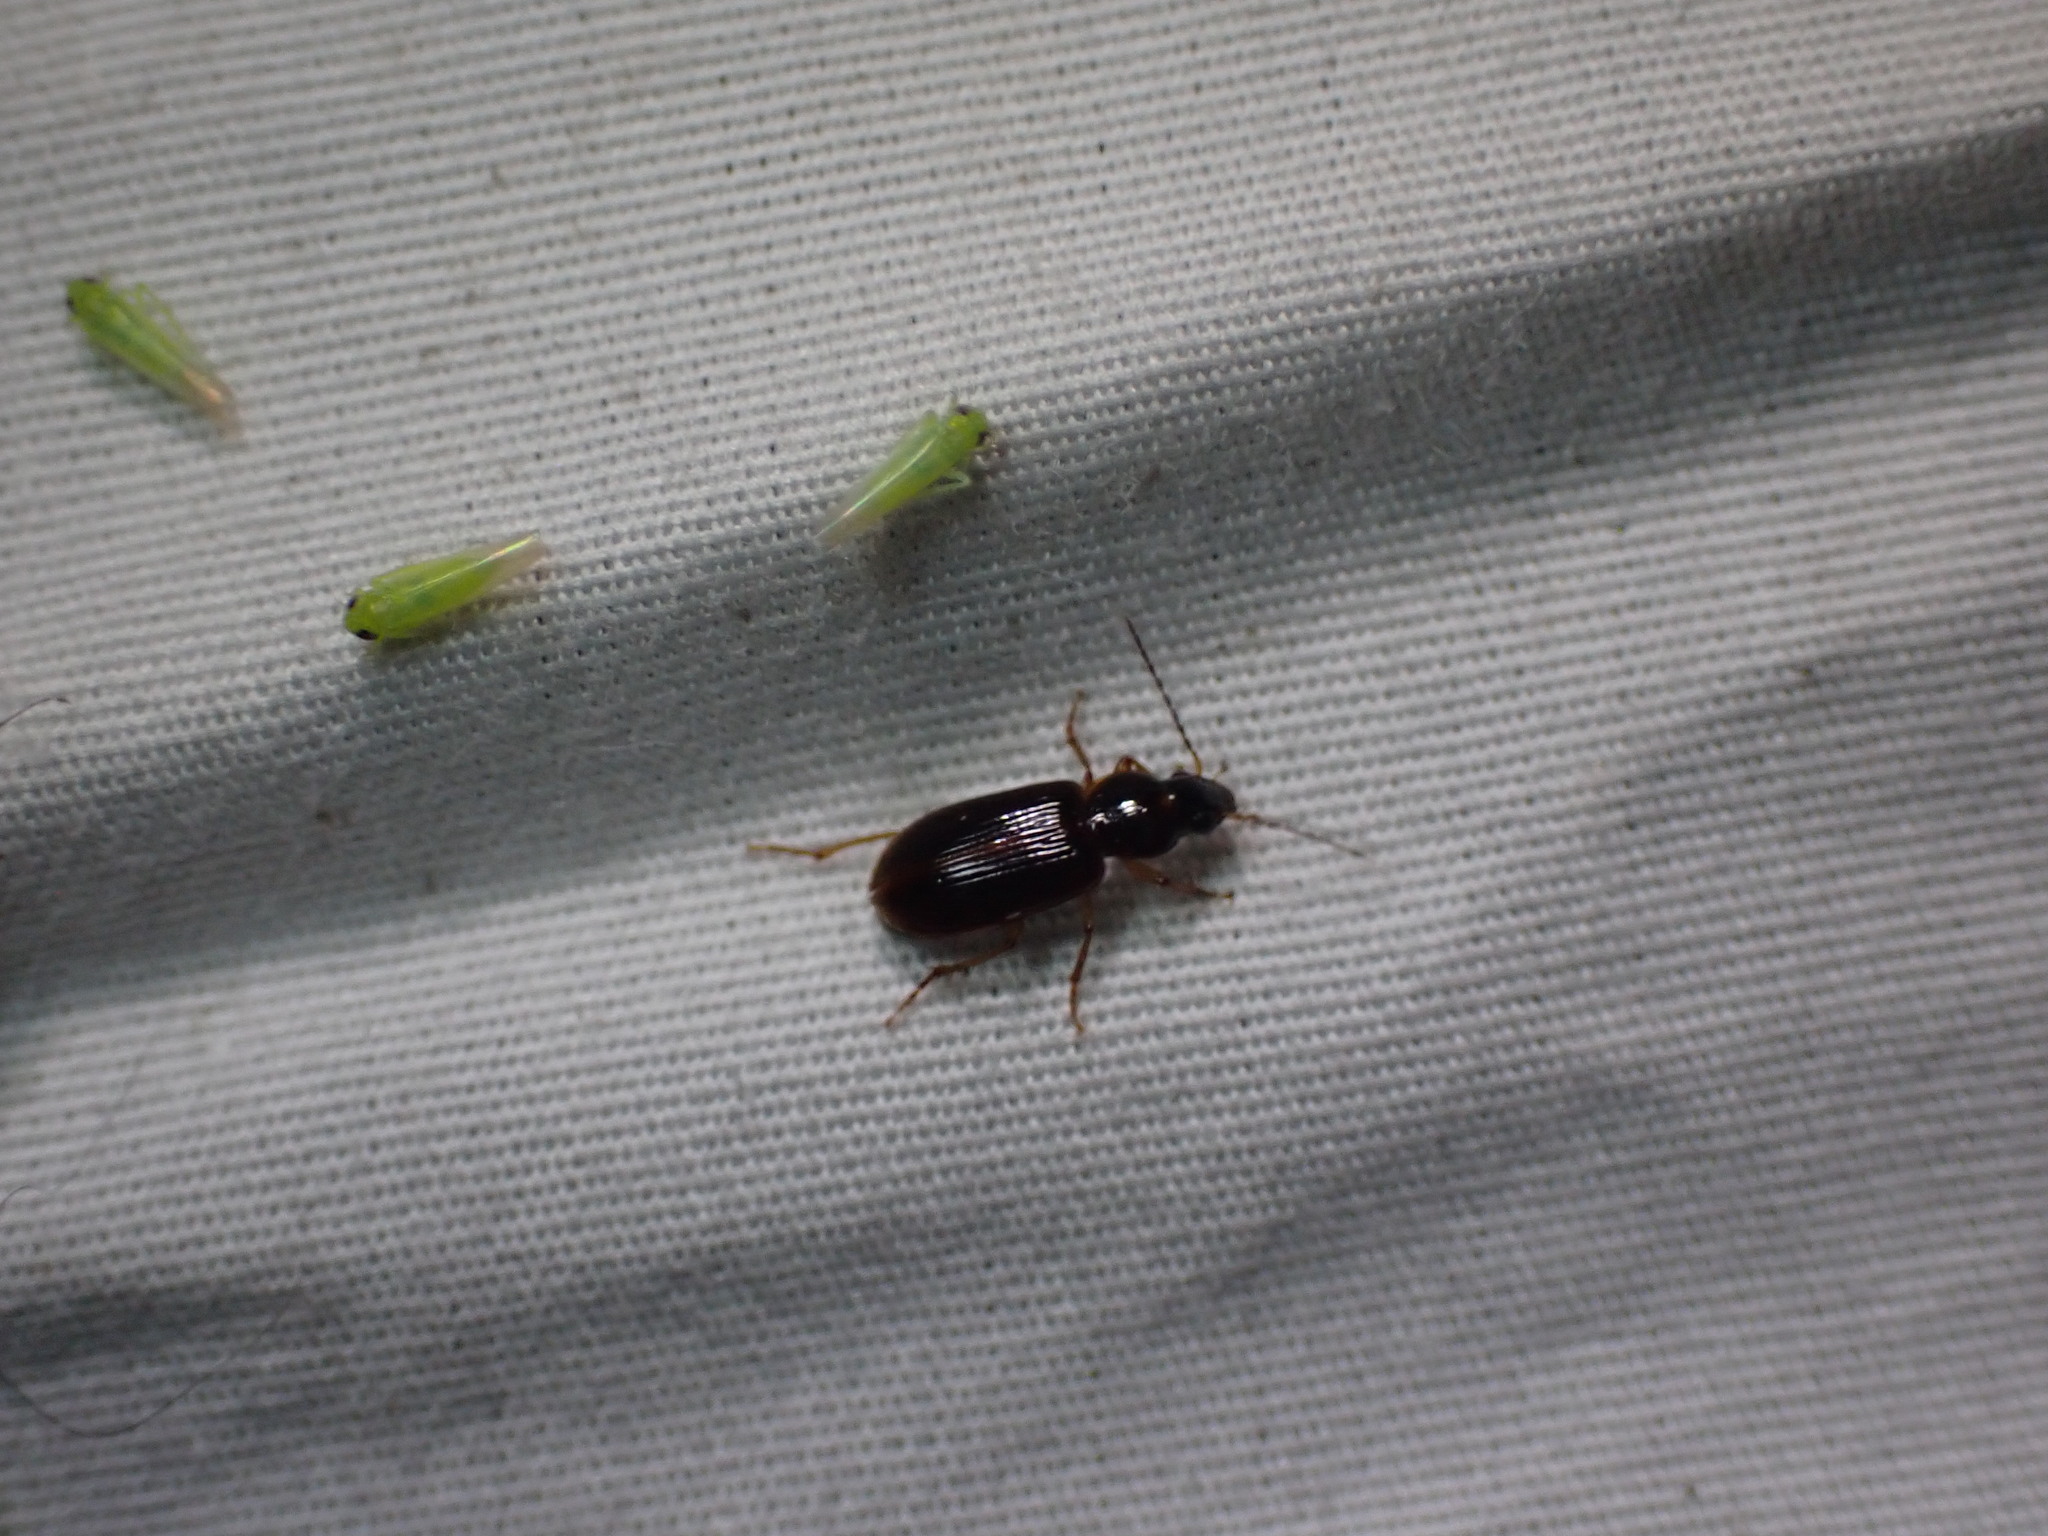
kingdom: Animalia
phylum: Arthropoda
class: Insecta
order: Coleoptera
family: Carabidae
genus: Stenolophus
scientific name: Stenolophus ochropezus
